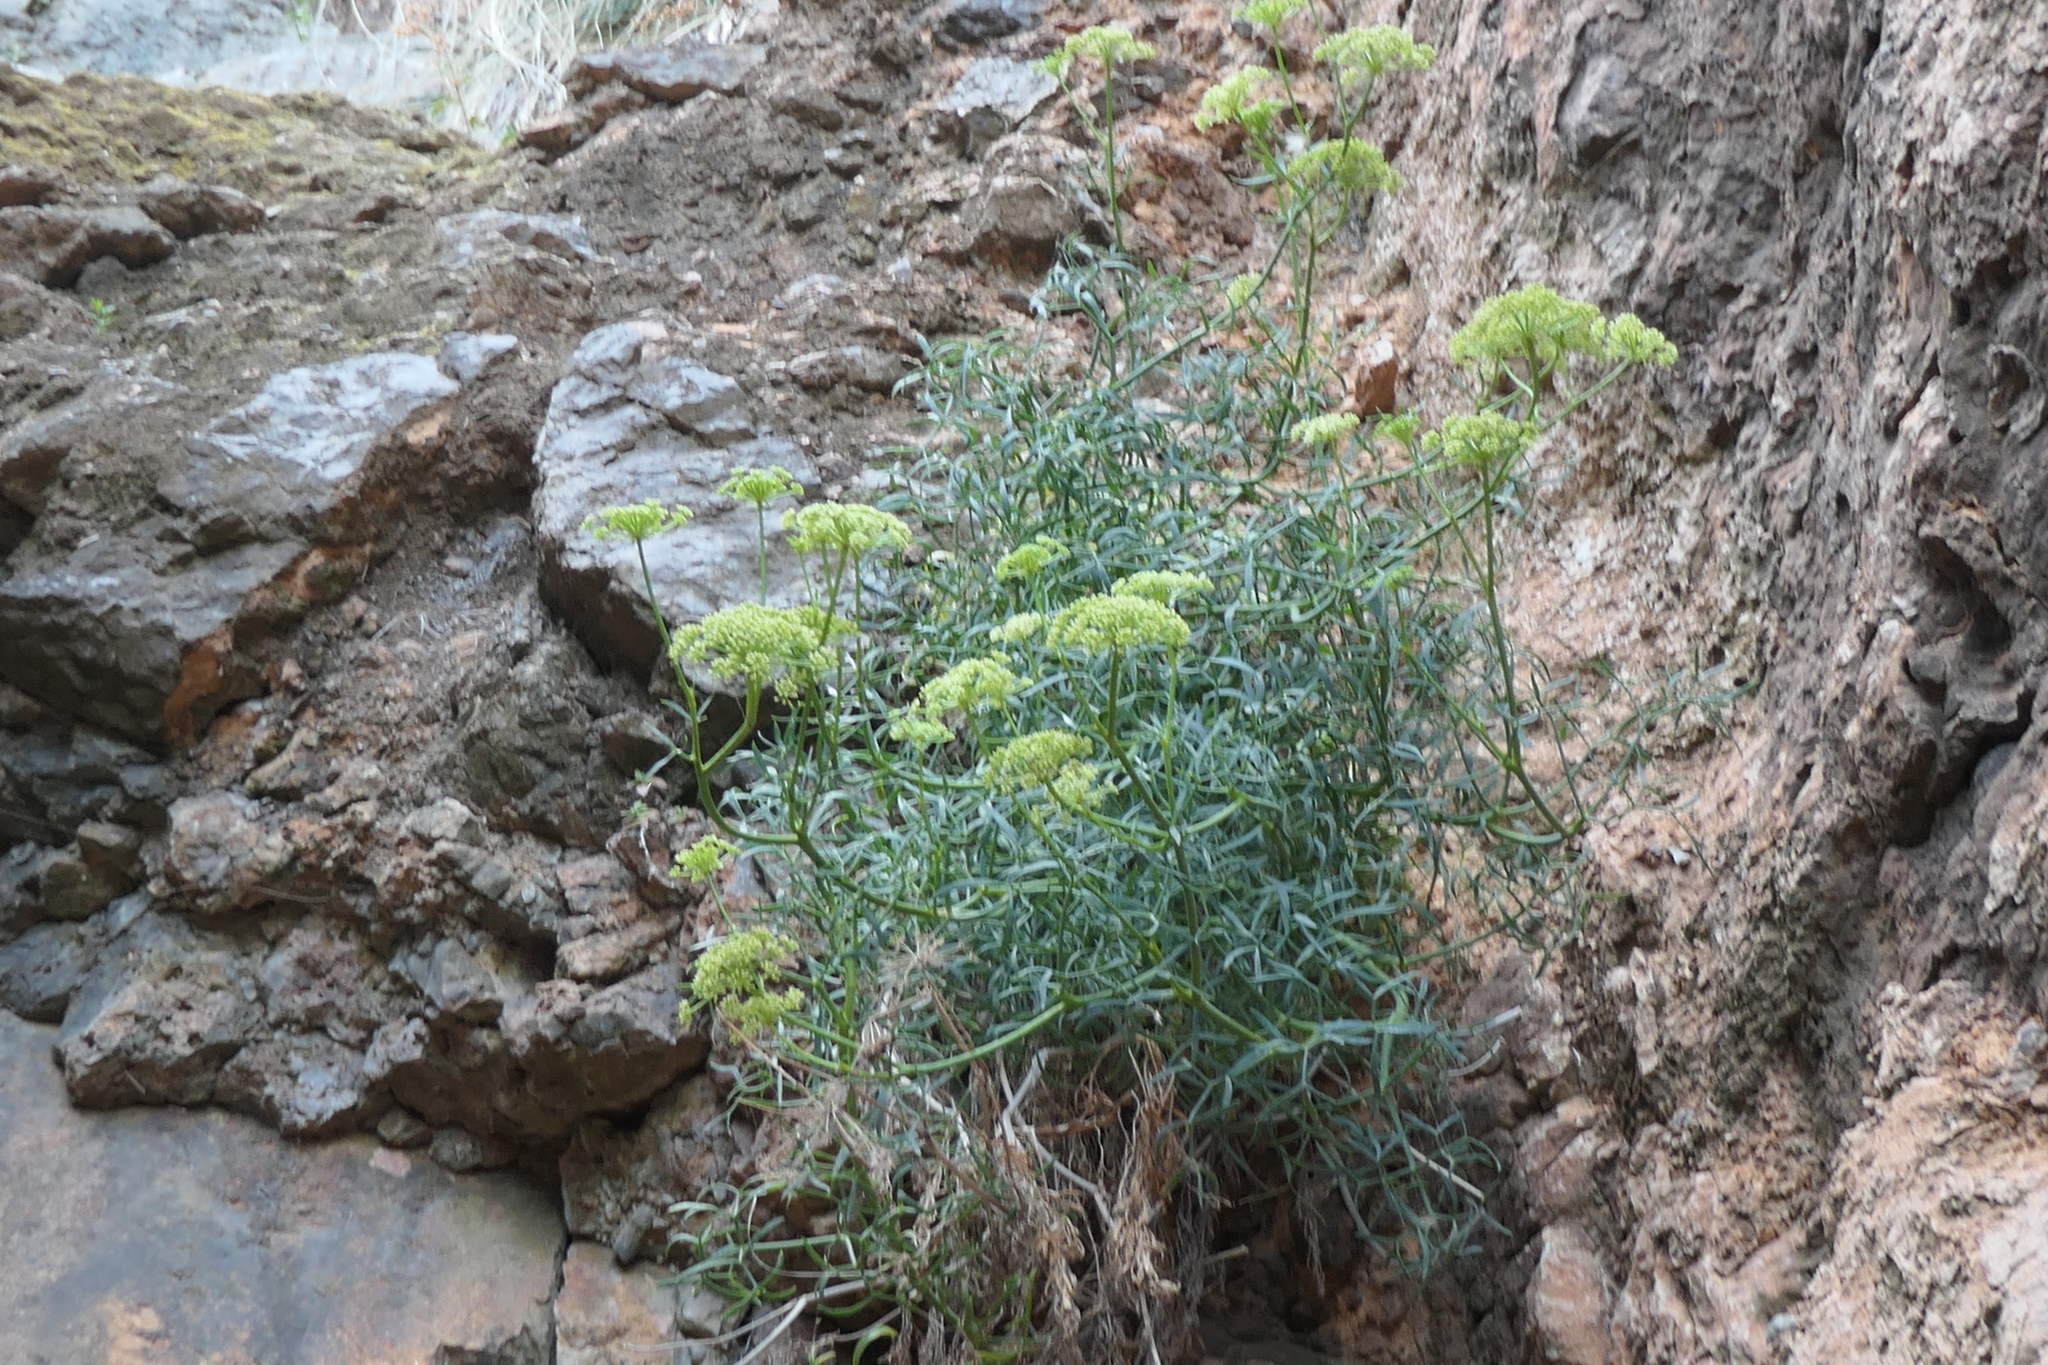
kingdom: Plantae
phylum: Tracheophyta
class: Magnoliopsida
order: Apiales
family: Apiaceae
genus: Crithmum
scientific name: Crithmum maritimum
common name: Rock samphire
